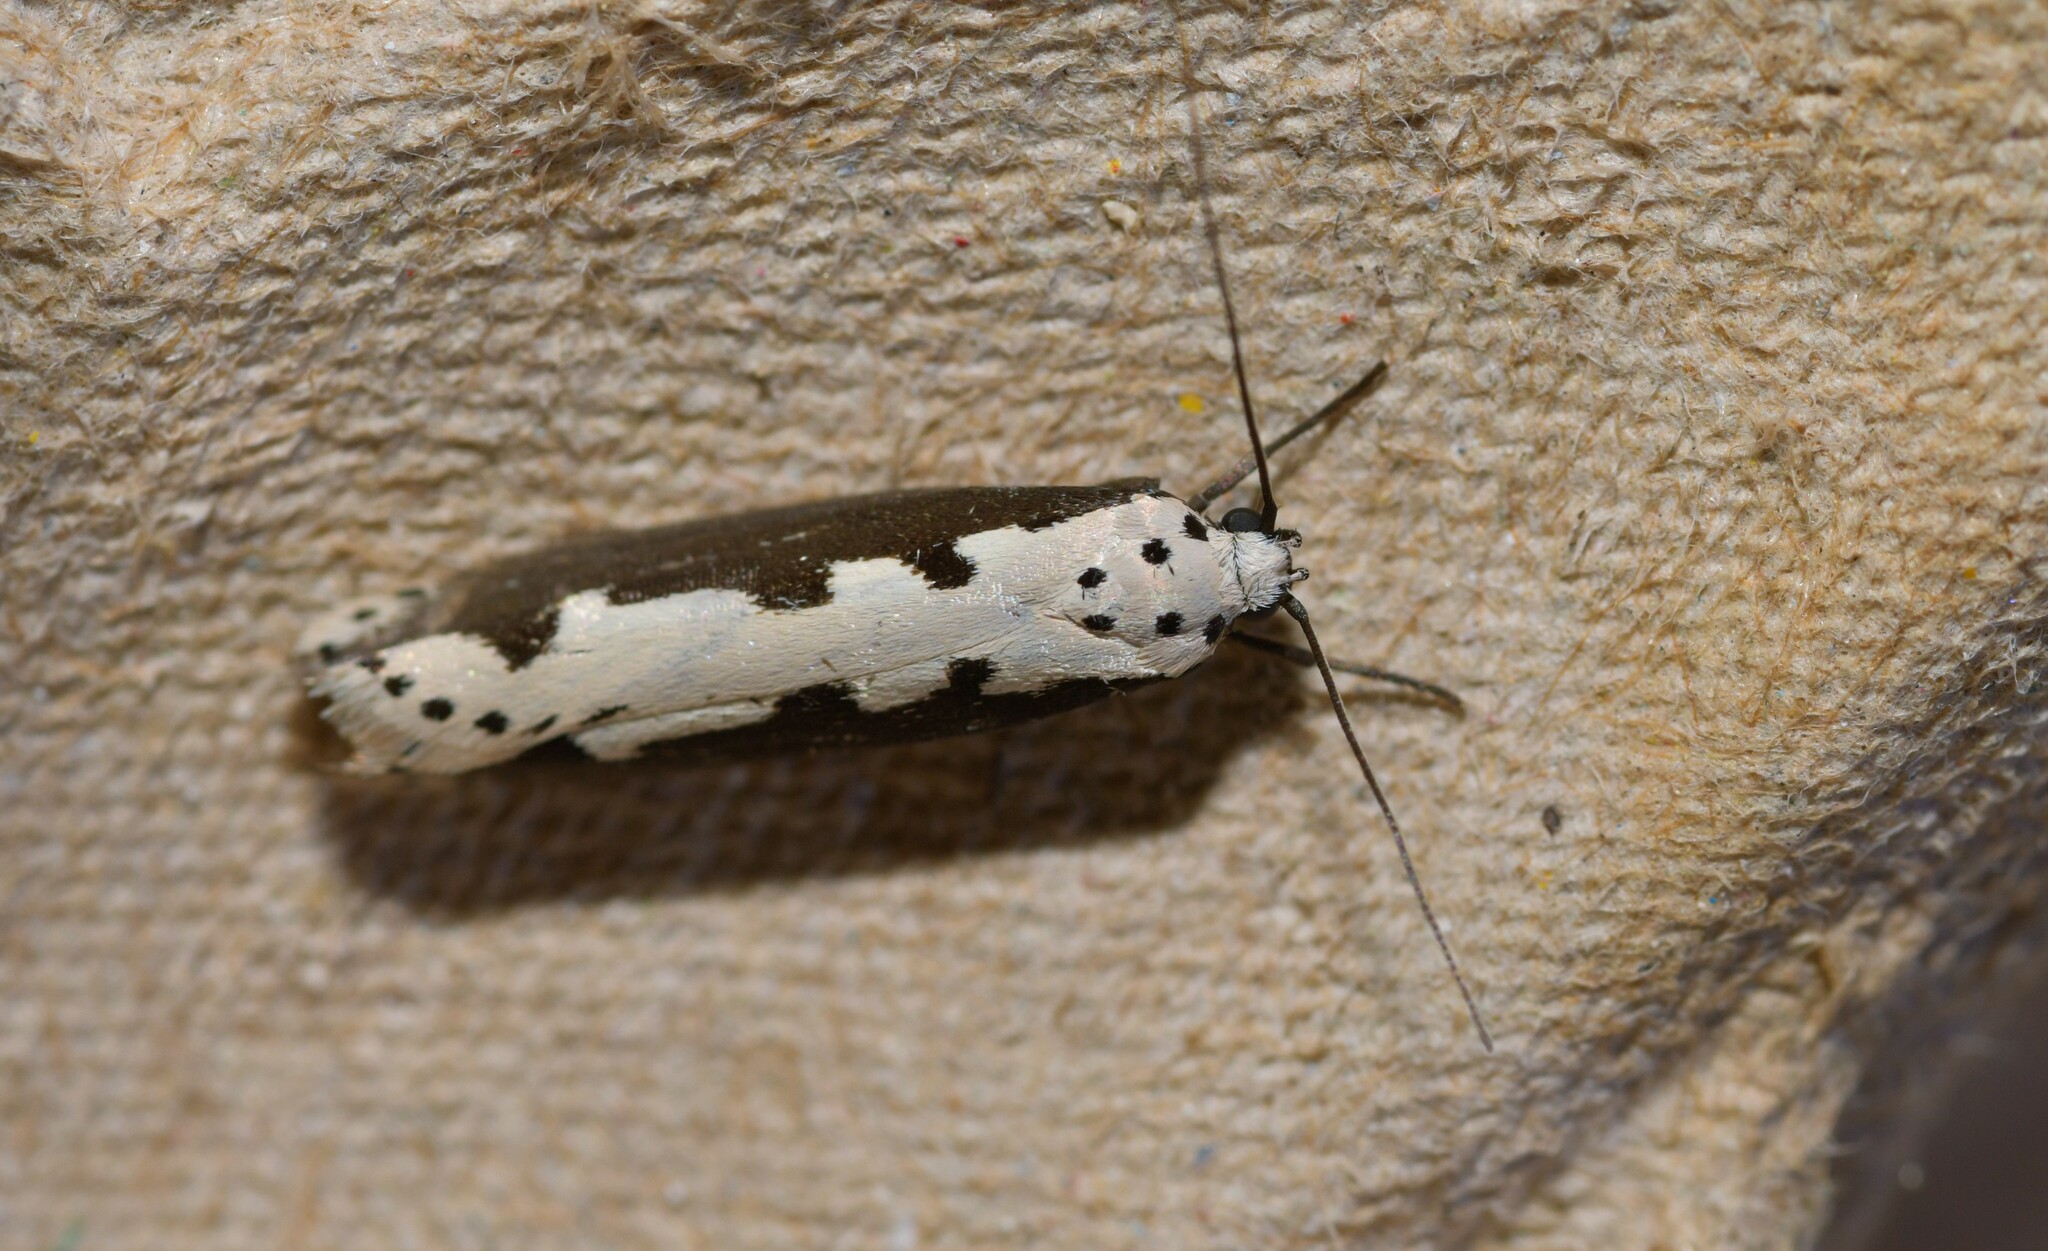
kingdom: Animalia
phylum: Arthropoda
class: Insecta
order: Lepidoptera
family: Ethmiidae
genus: Ethmia
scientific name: Ethmia bipunctella
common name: Bordered ermel
